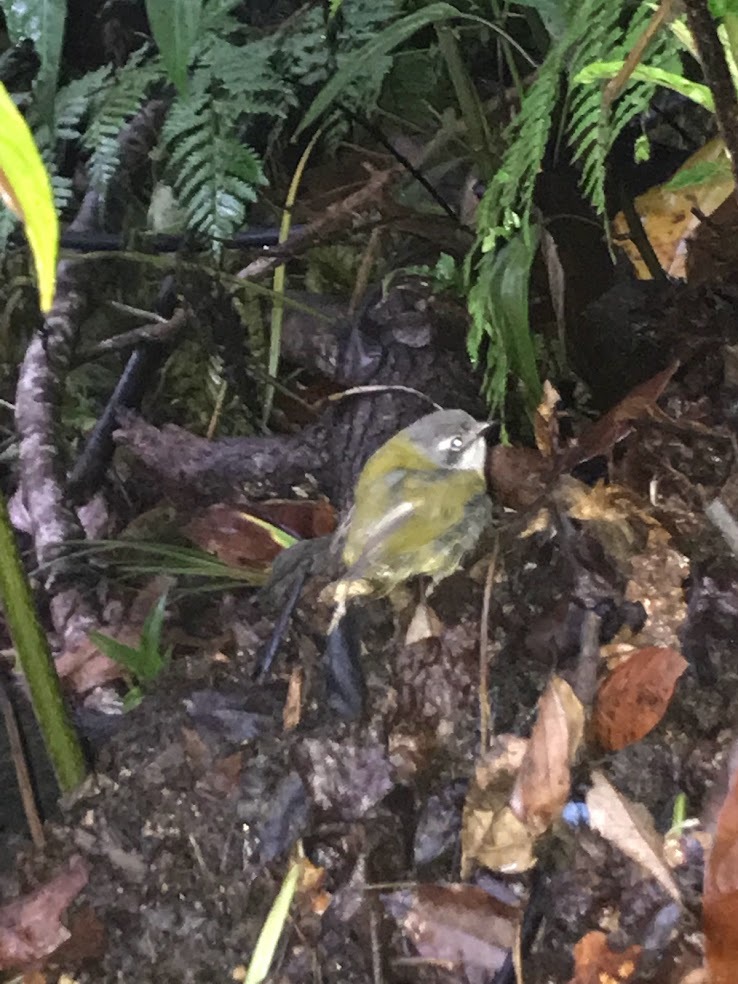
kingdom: Animalia
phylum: Chordata
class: Aves
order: Passeriformes
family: Passerellidae
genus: Chlorospingus
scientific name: Chlorospingus flavopectus
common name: Common chlorospingus
